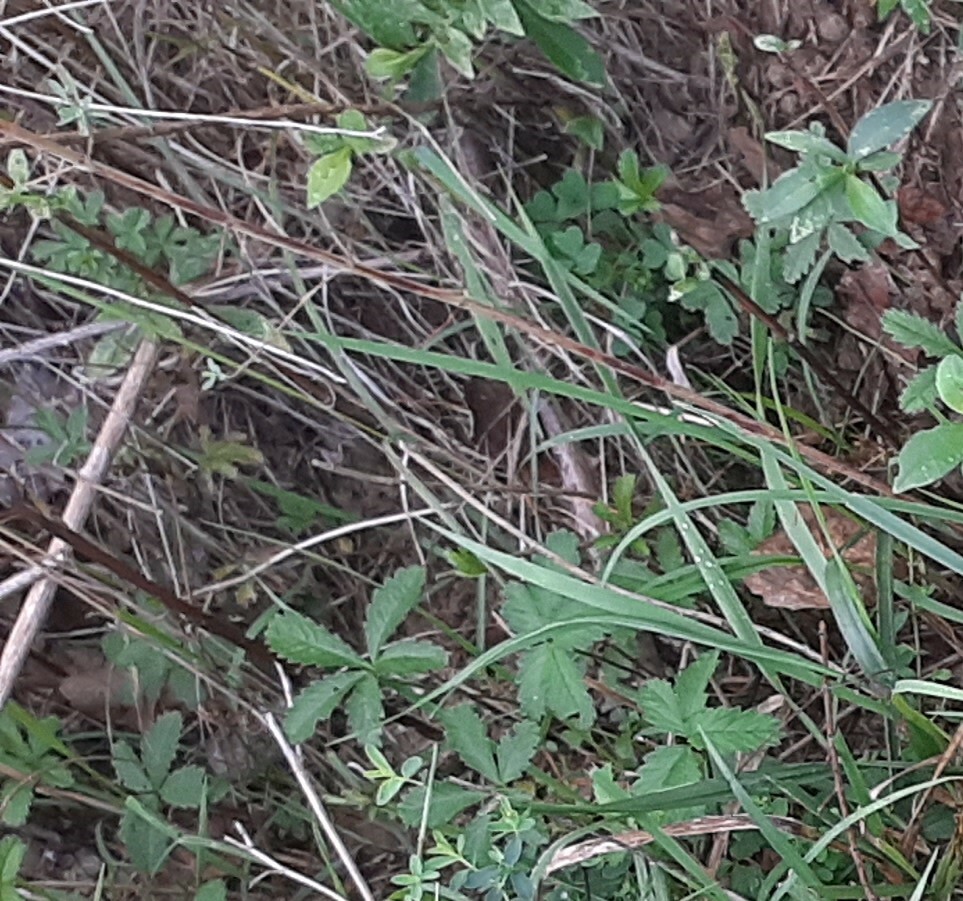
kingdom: Plantae
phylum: Tracheophyta
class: Magnoliopsida
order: Rosales
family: Rosaceae
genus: Potentilla
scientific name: Potentilla reptans
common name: Creeping cinquefoil
